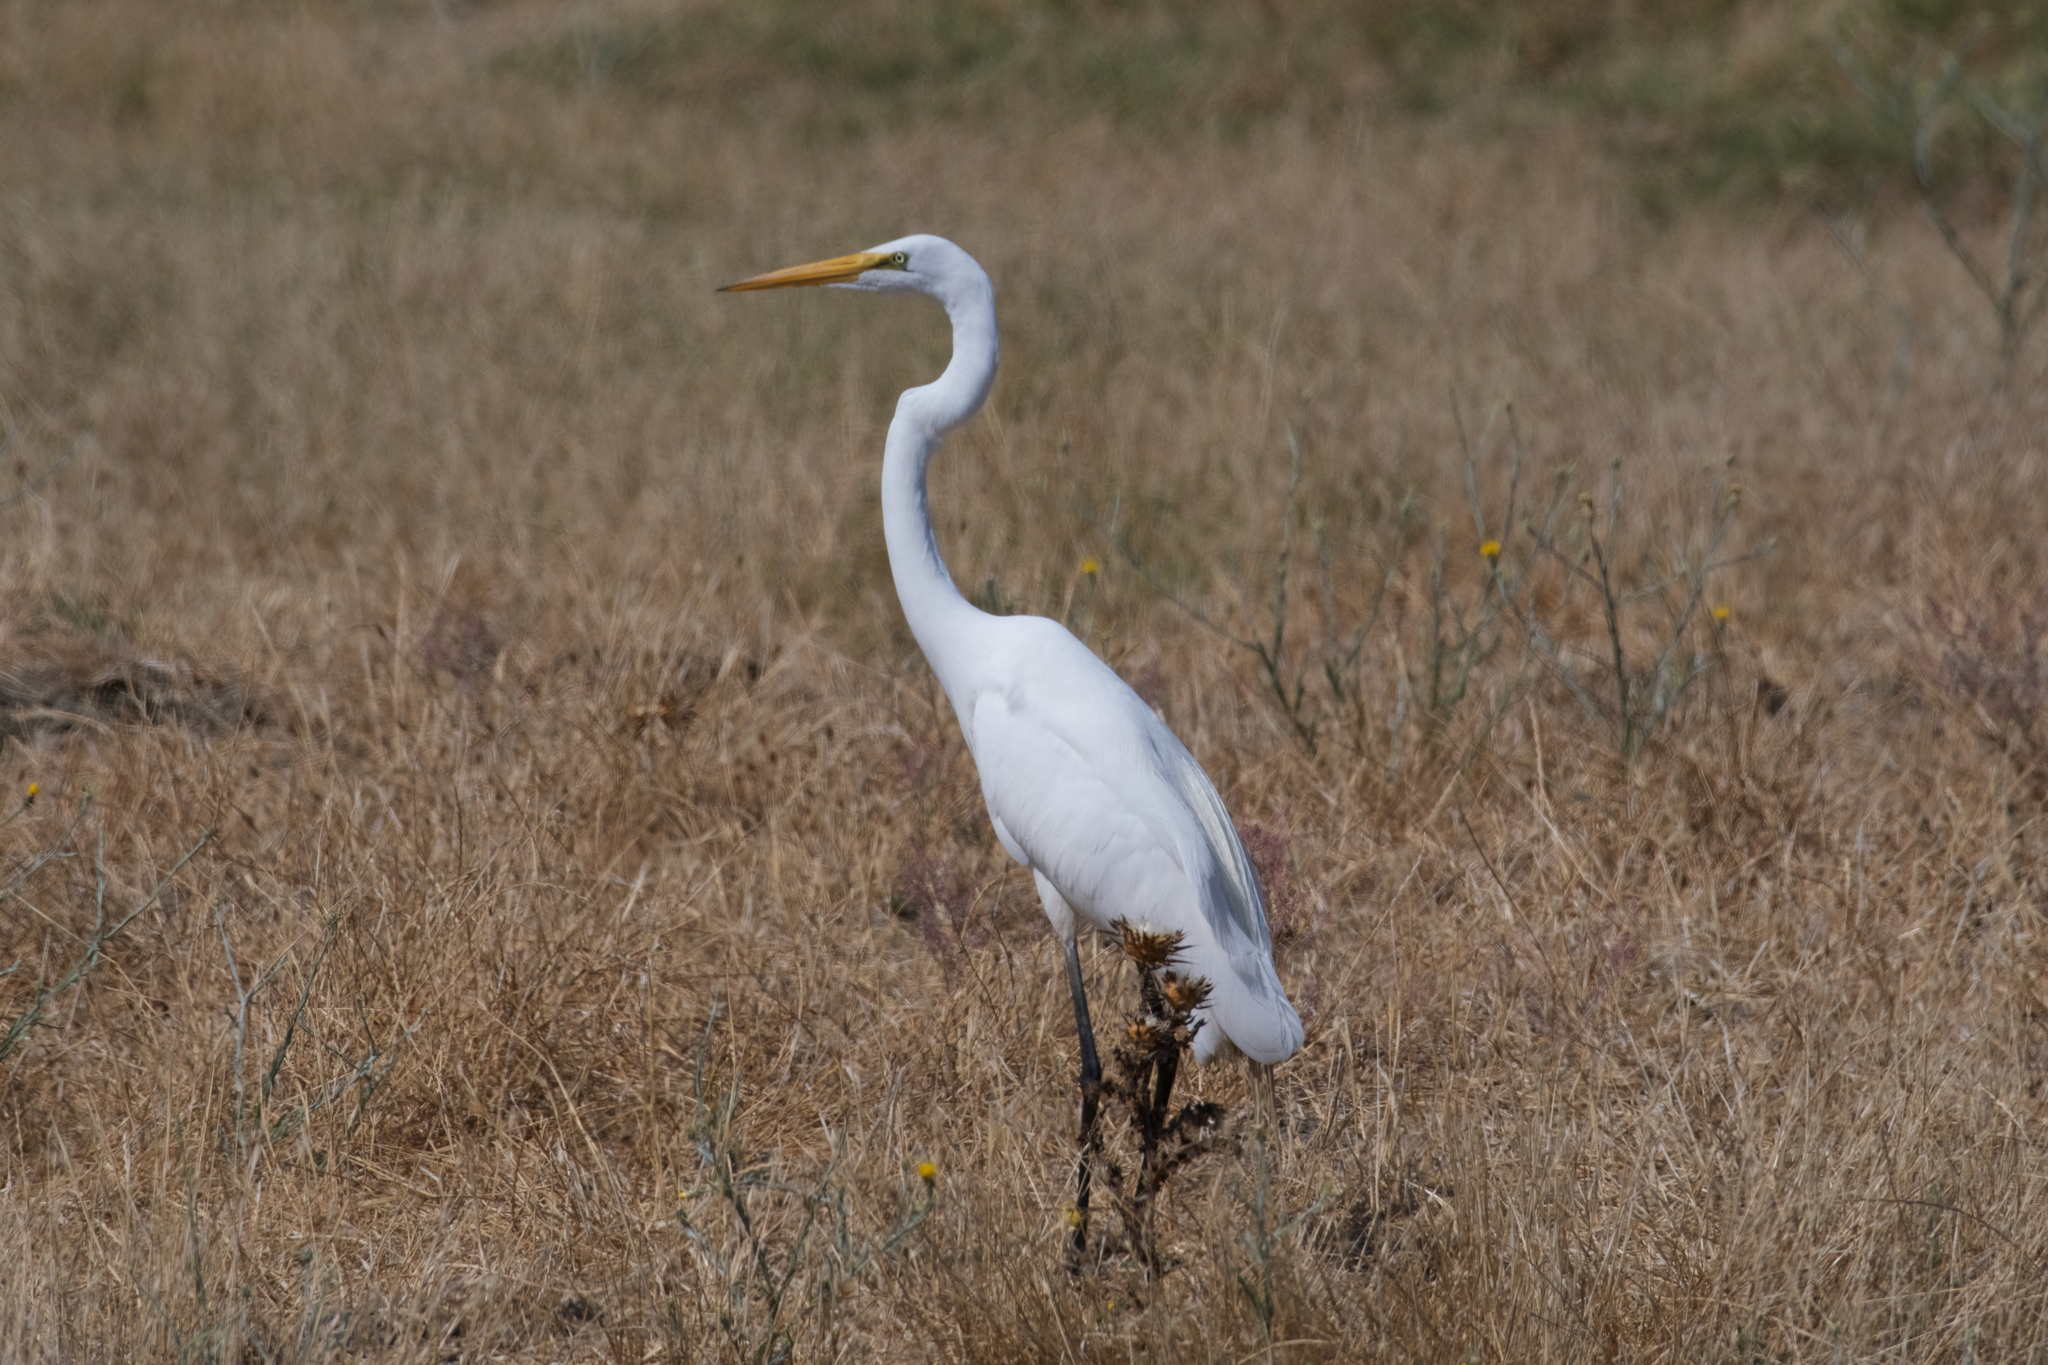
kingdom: Animalia
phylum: Chordata
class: Aves
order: Pelecaniformes
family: Ardeidae
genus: Ardea
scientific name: Ardea alba
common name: Great egret
